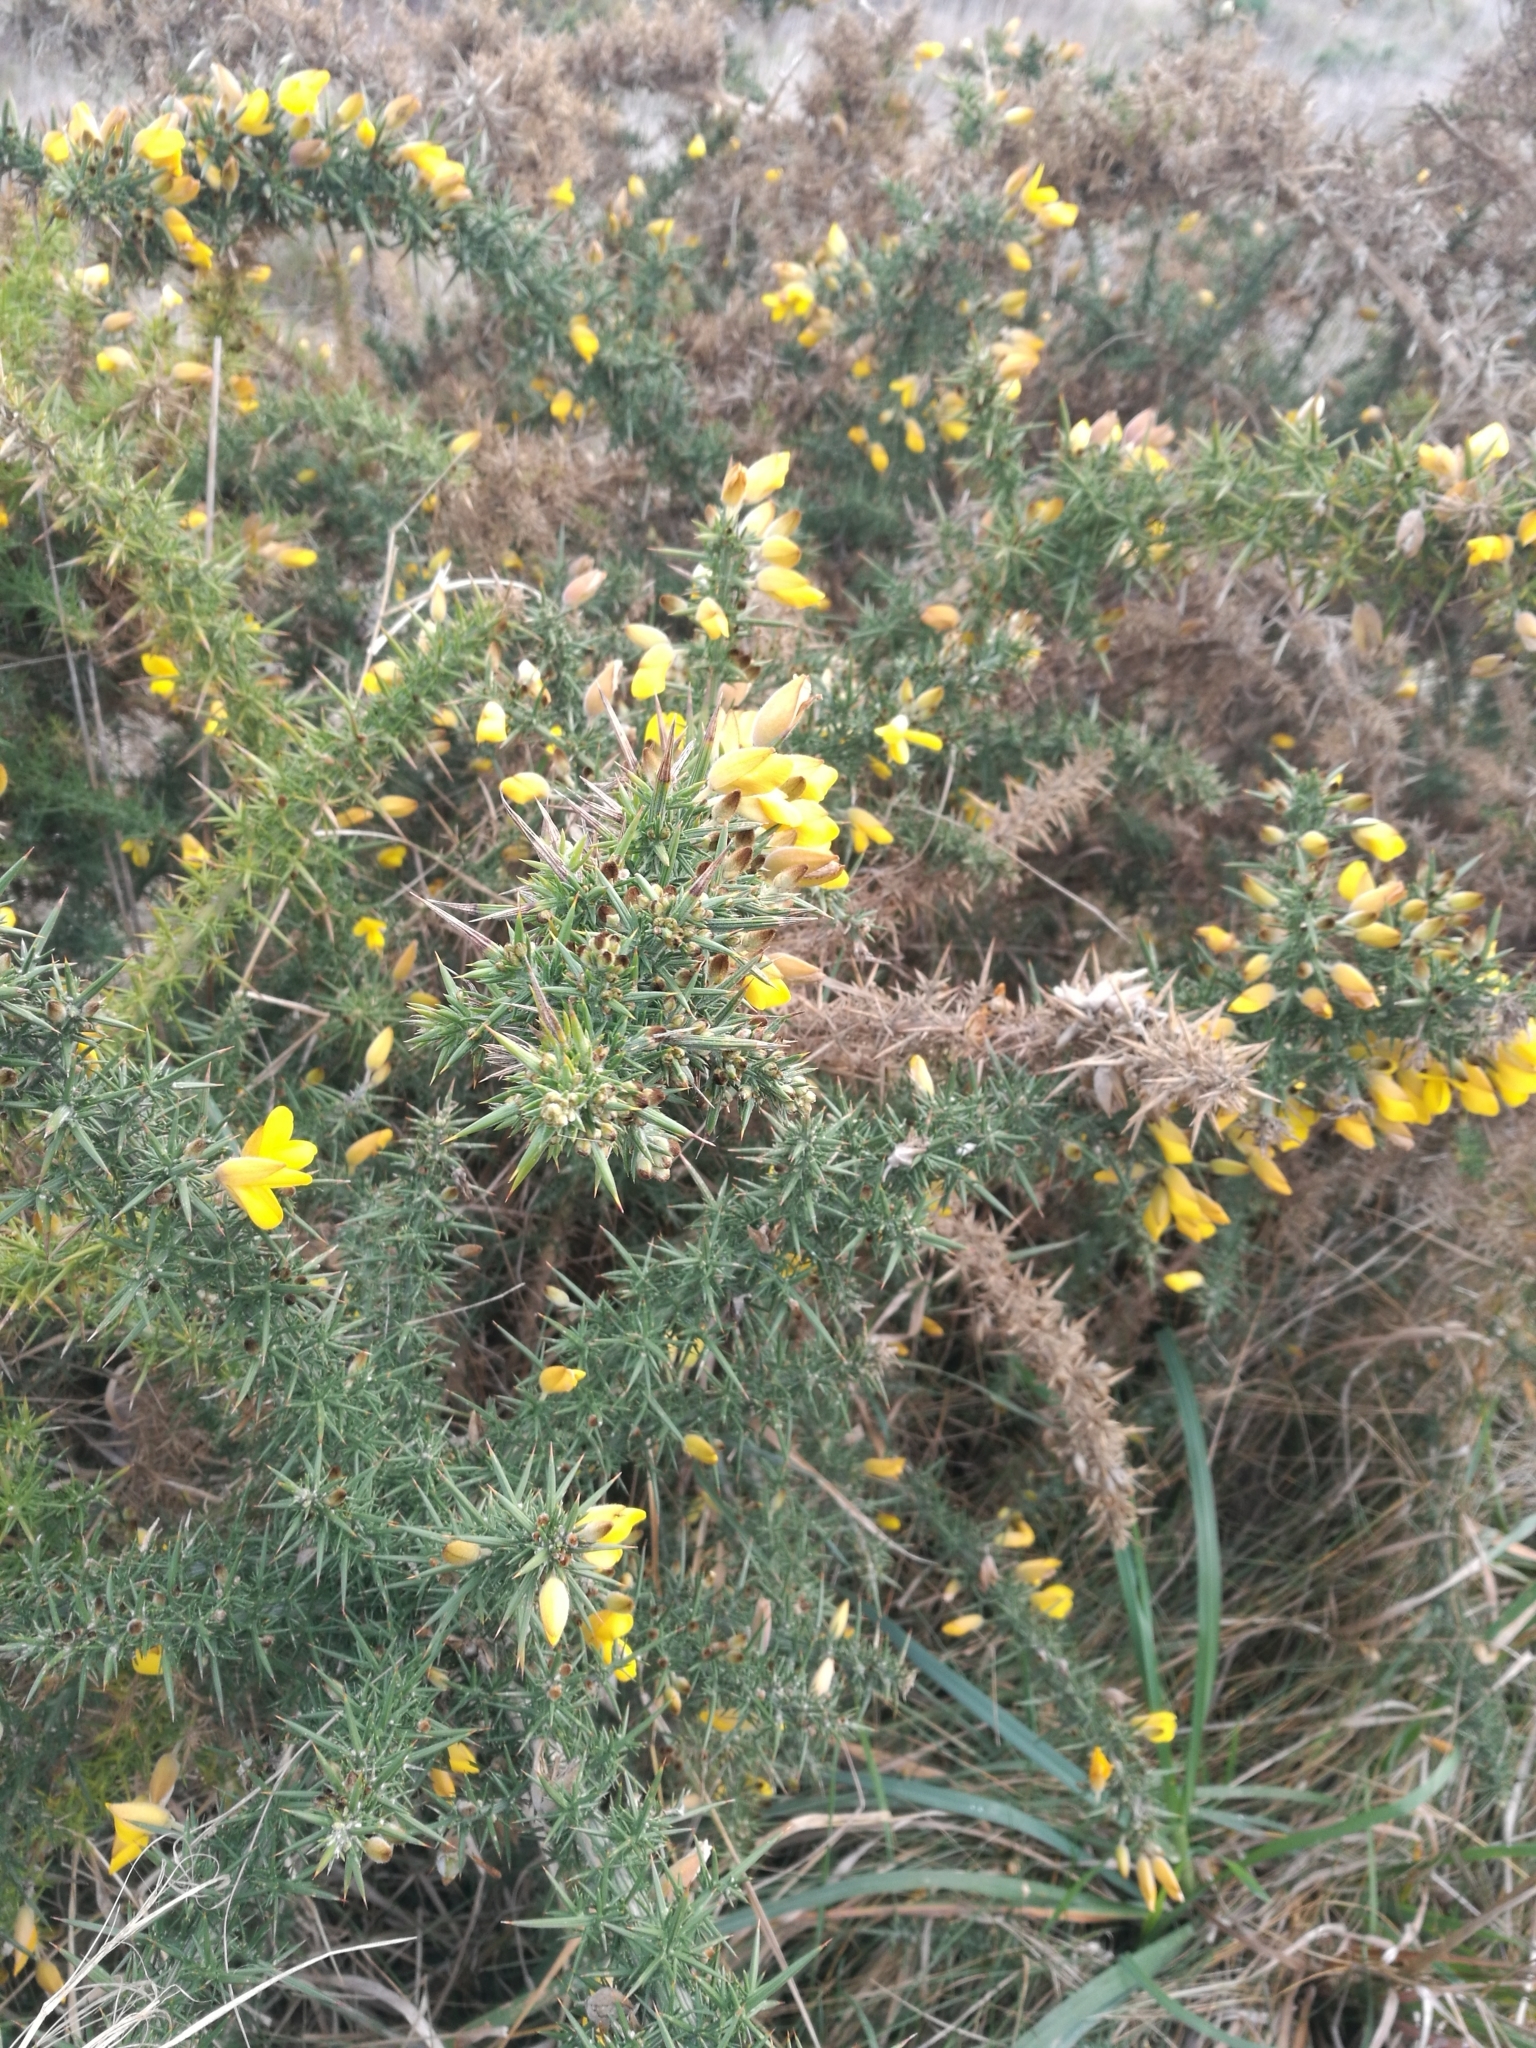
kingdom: Plantae
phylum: Tracheophyta
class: Magnoliopsida
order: Fabales
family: Fabaceae
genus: Ulex
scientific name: Ulex europaeus
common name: Common gorse
